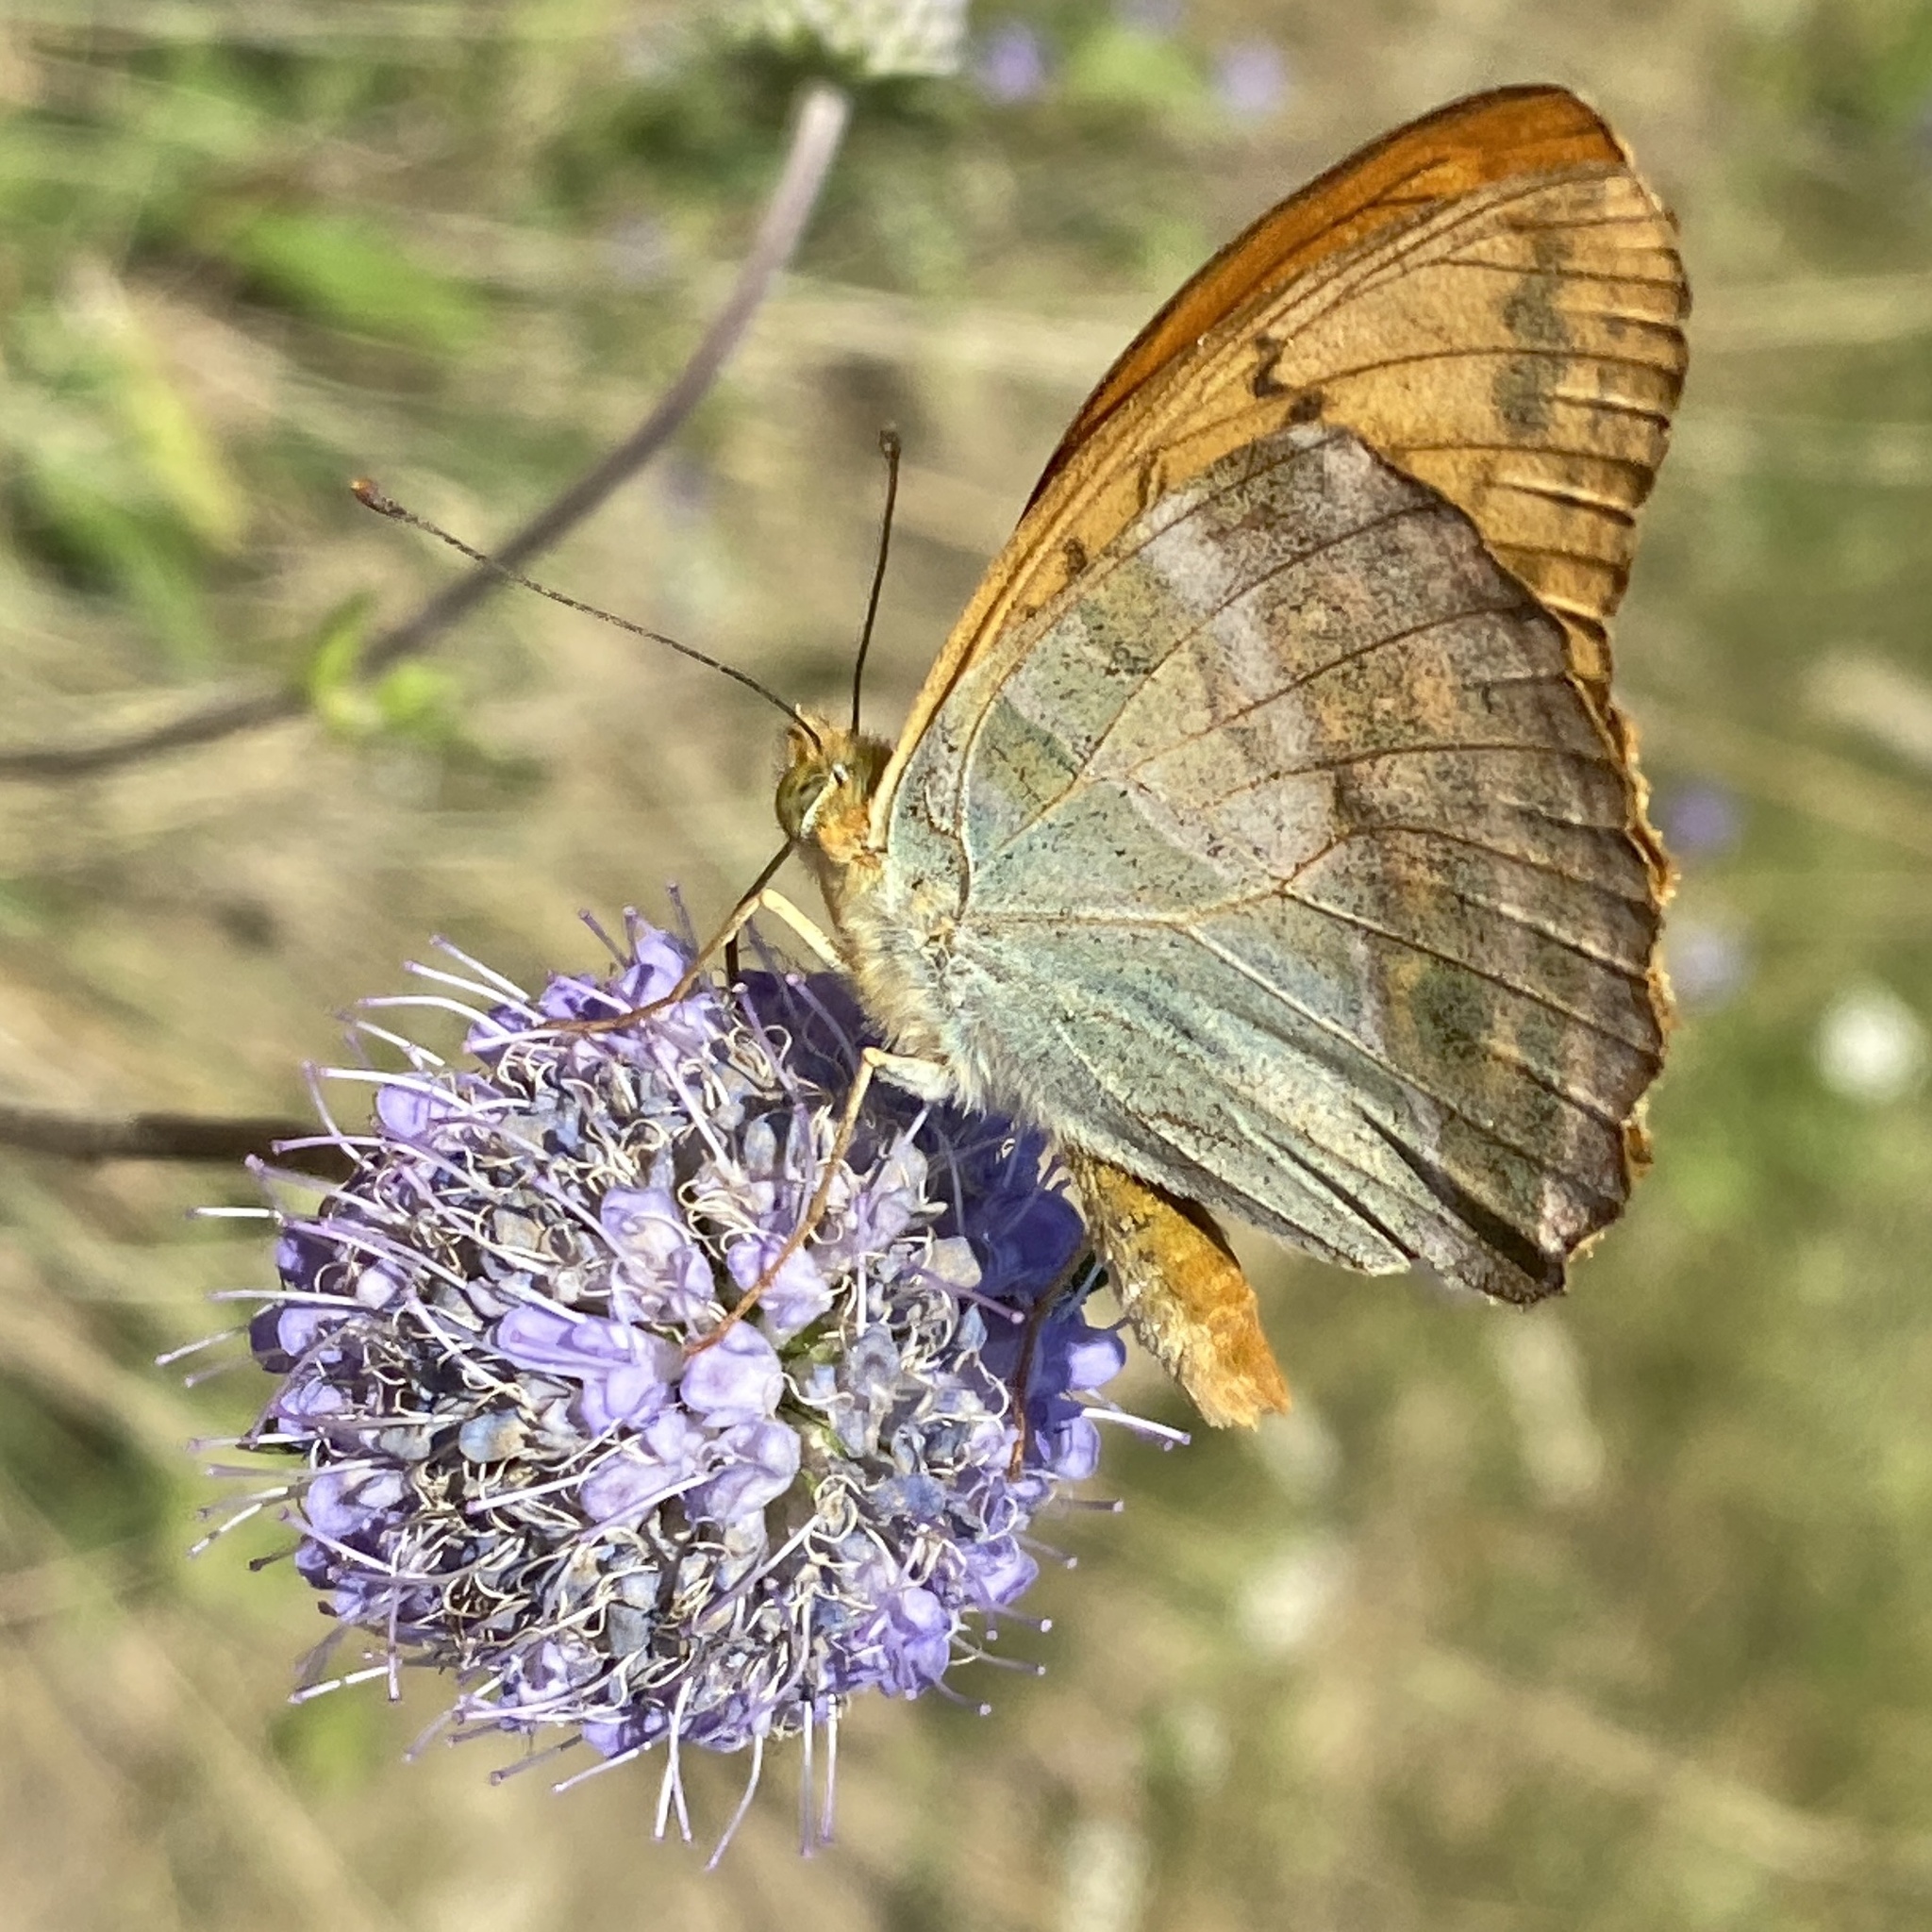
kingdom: Animalia
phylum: Arthropoda
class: Insecta
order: Lepidoptera
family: Nymphalidae
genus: Argynnis
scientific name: Argynnis paphia
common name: Silver-washed fritillary
